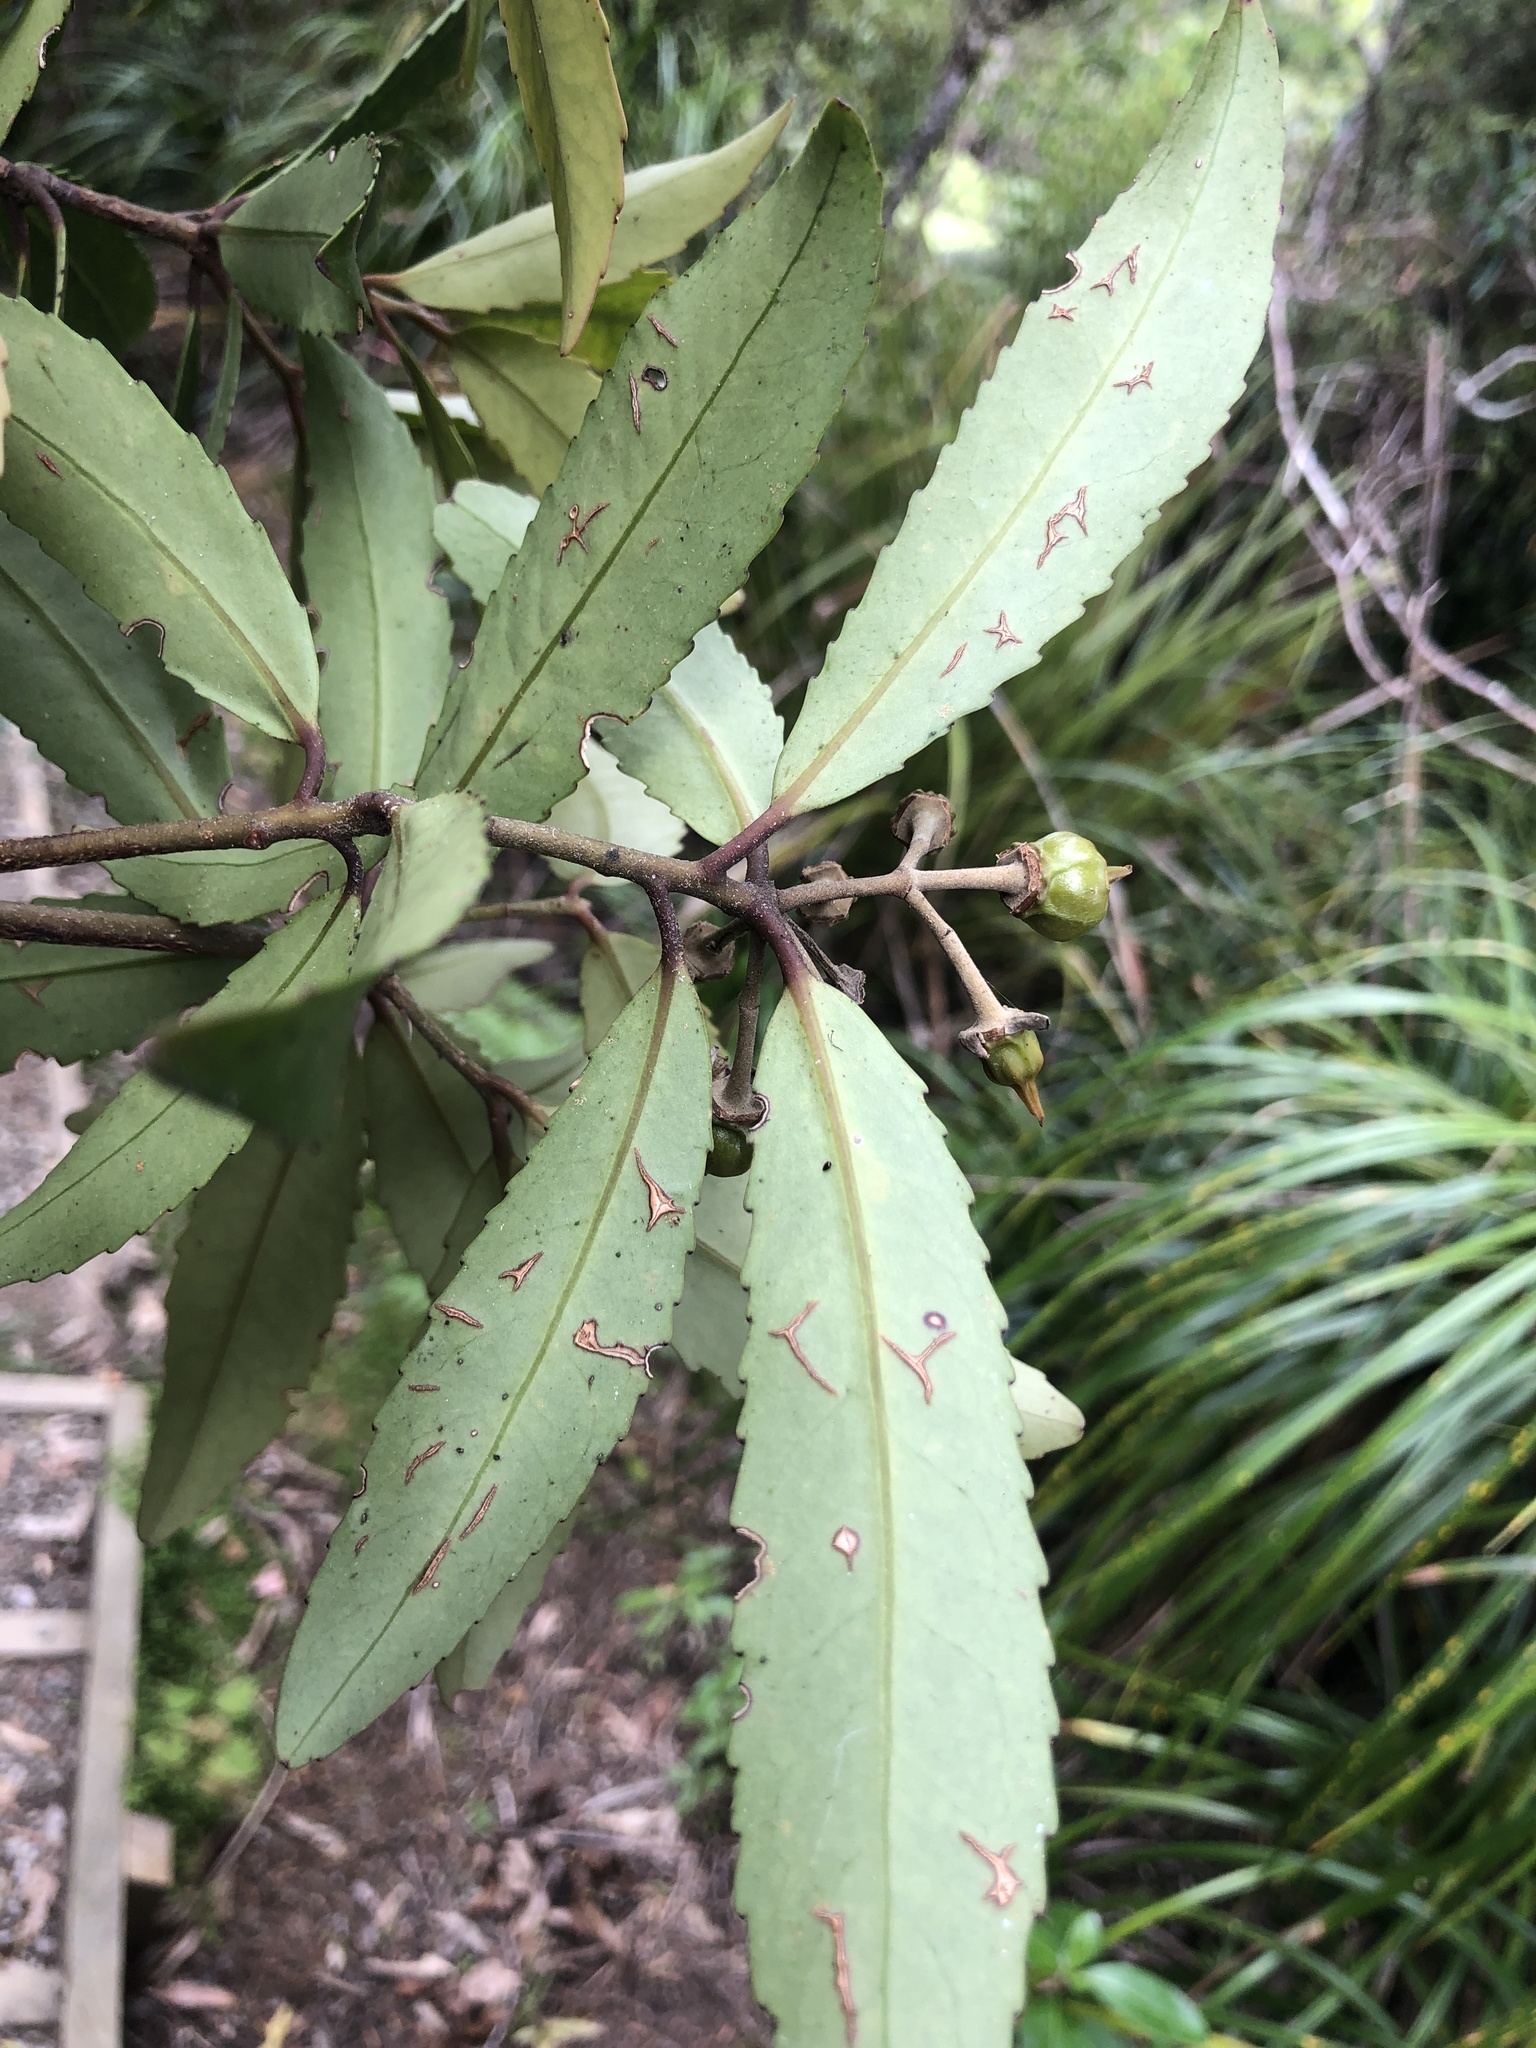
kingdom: Plantae
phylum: Tracheophyta
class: Magnoliopsida
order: Crossosomatales
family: Ixerbaceae
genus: Ixerba
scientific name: Ixerba brexioides
